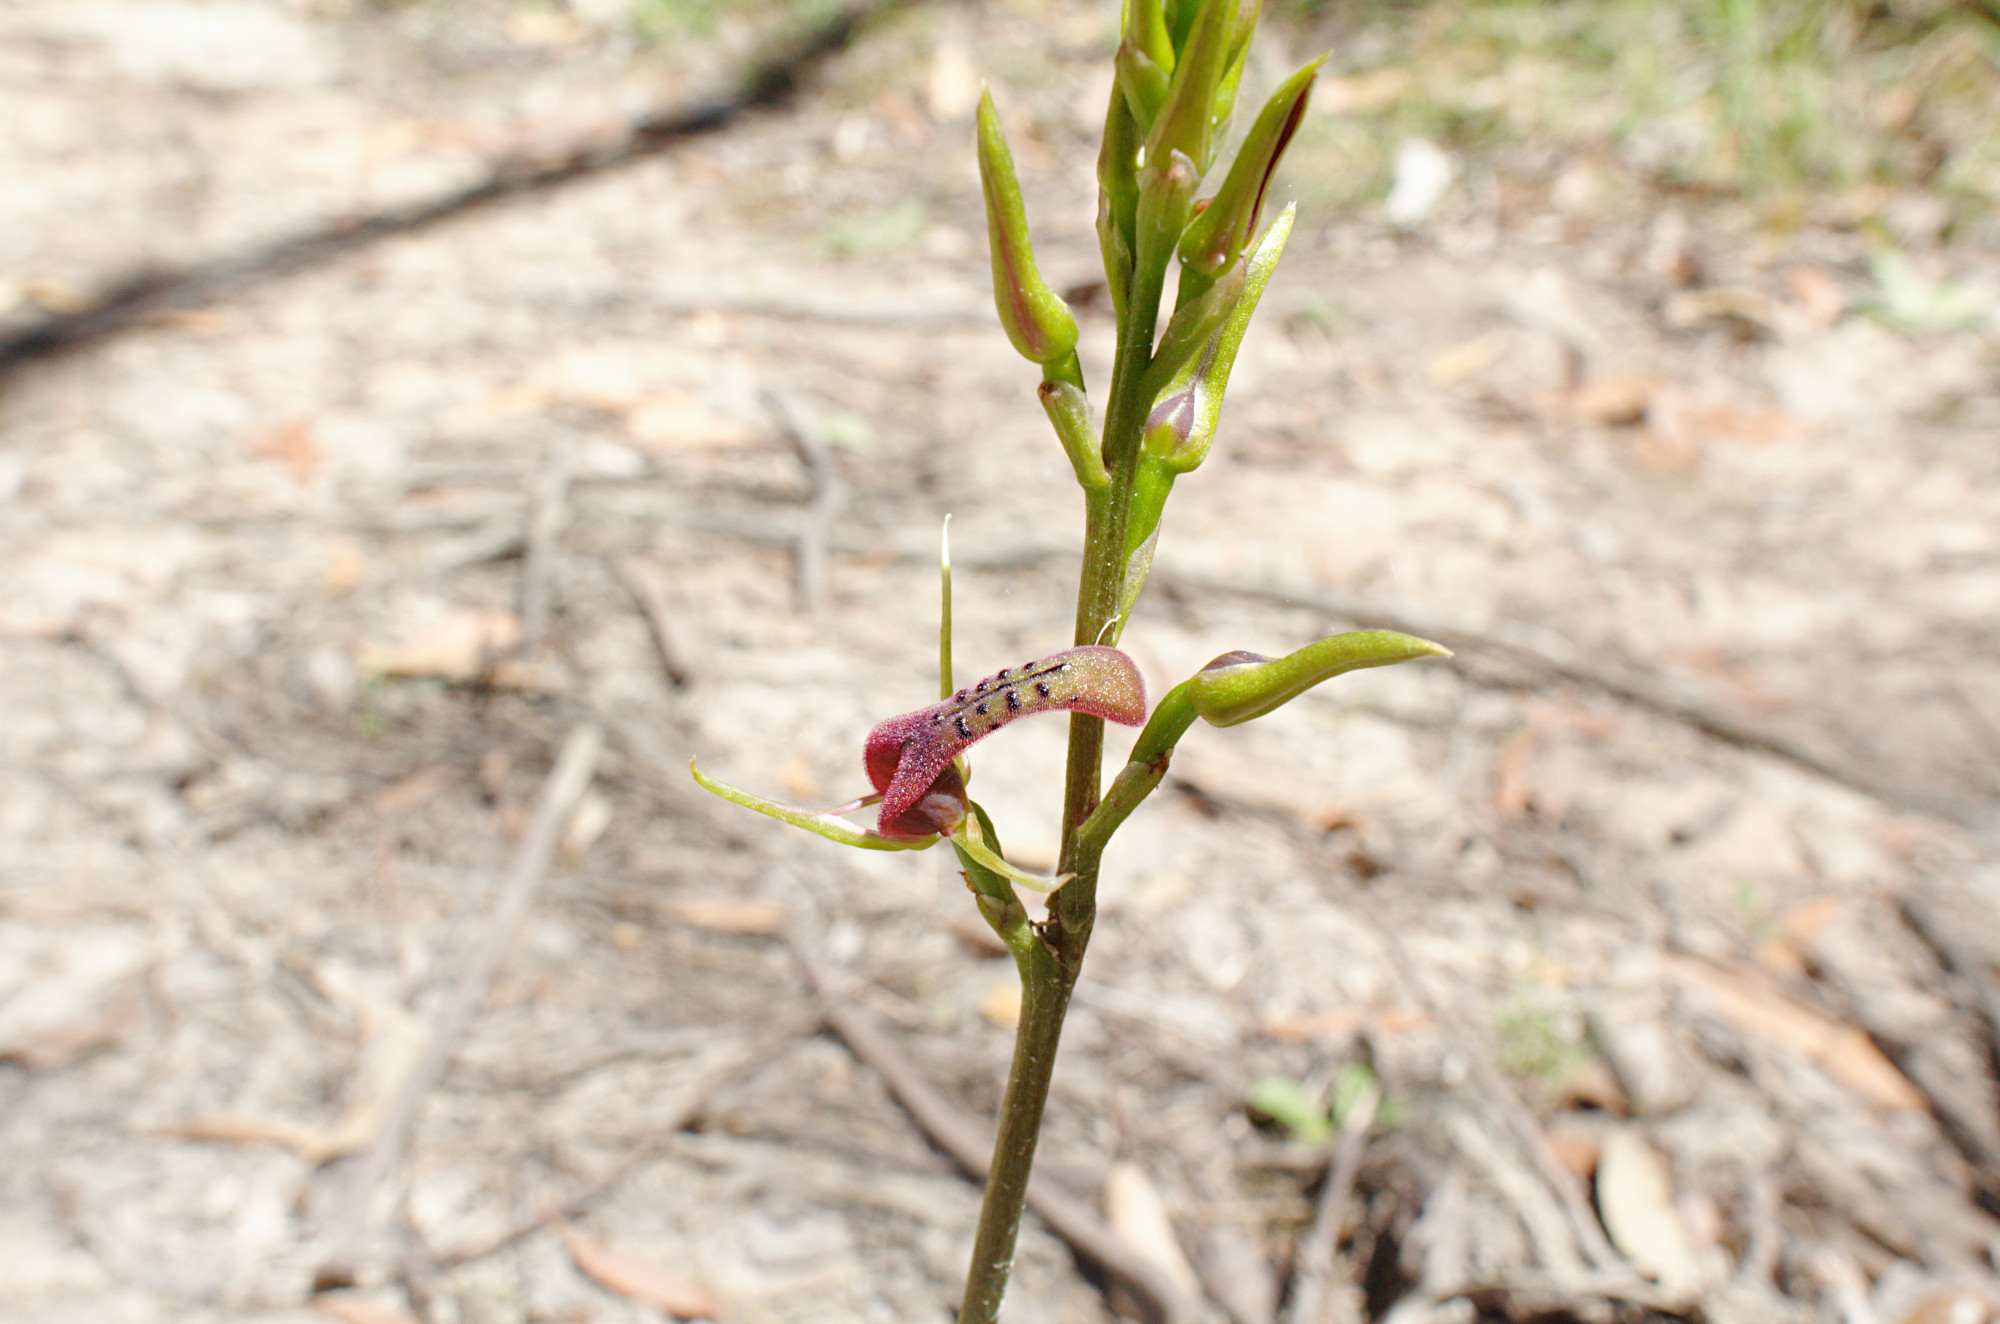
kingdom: Plantae
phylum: Tracheophyta
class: Liliopsida
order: Asparagales
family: Orchidaceae
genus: Cryptostylis
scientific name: Cryptostylis leptochila
